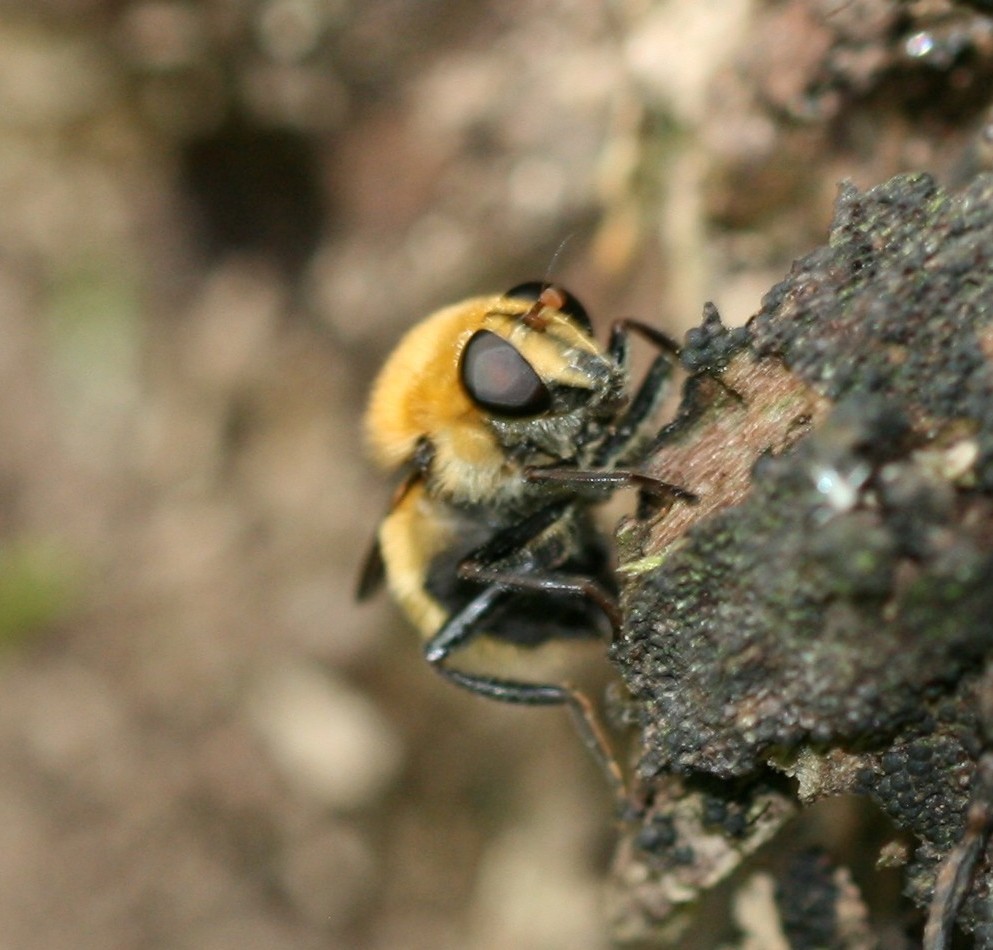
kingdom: Animalia
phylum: Arthropoda
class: Insecta
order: Diptera
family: Syrphidae
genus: Criorhina
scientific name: Criorhina berberina
